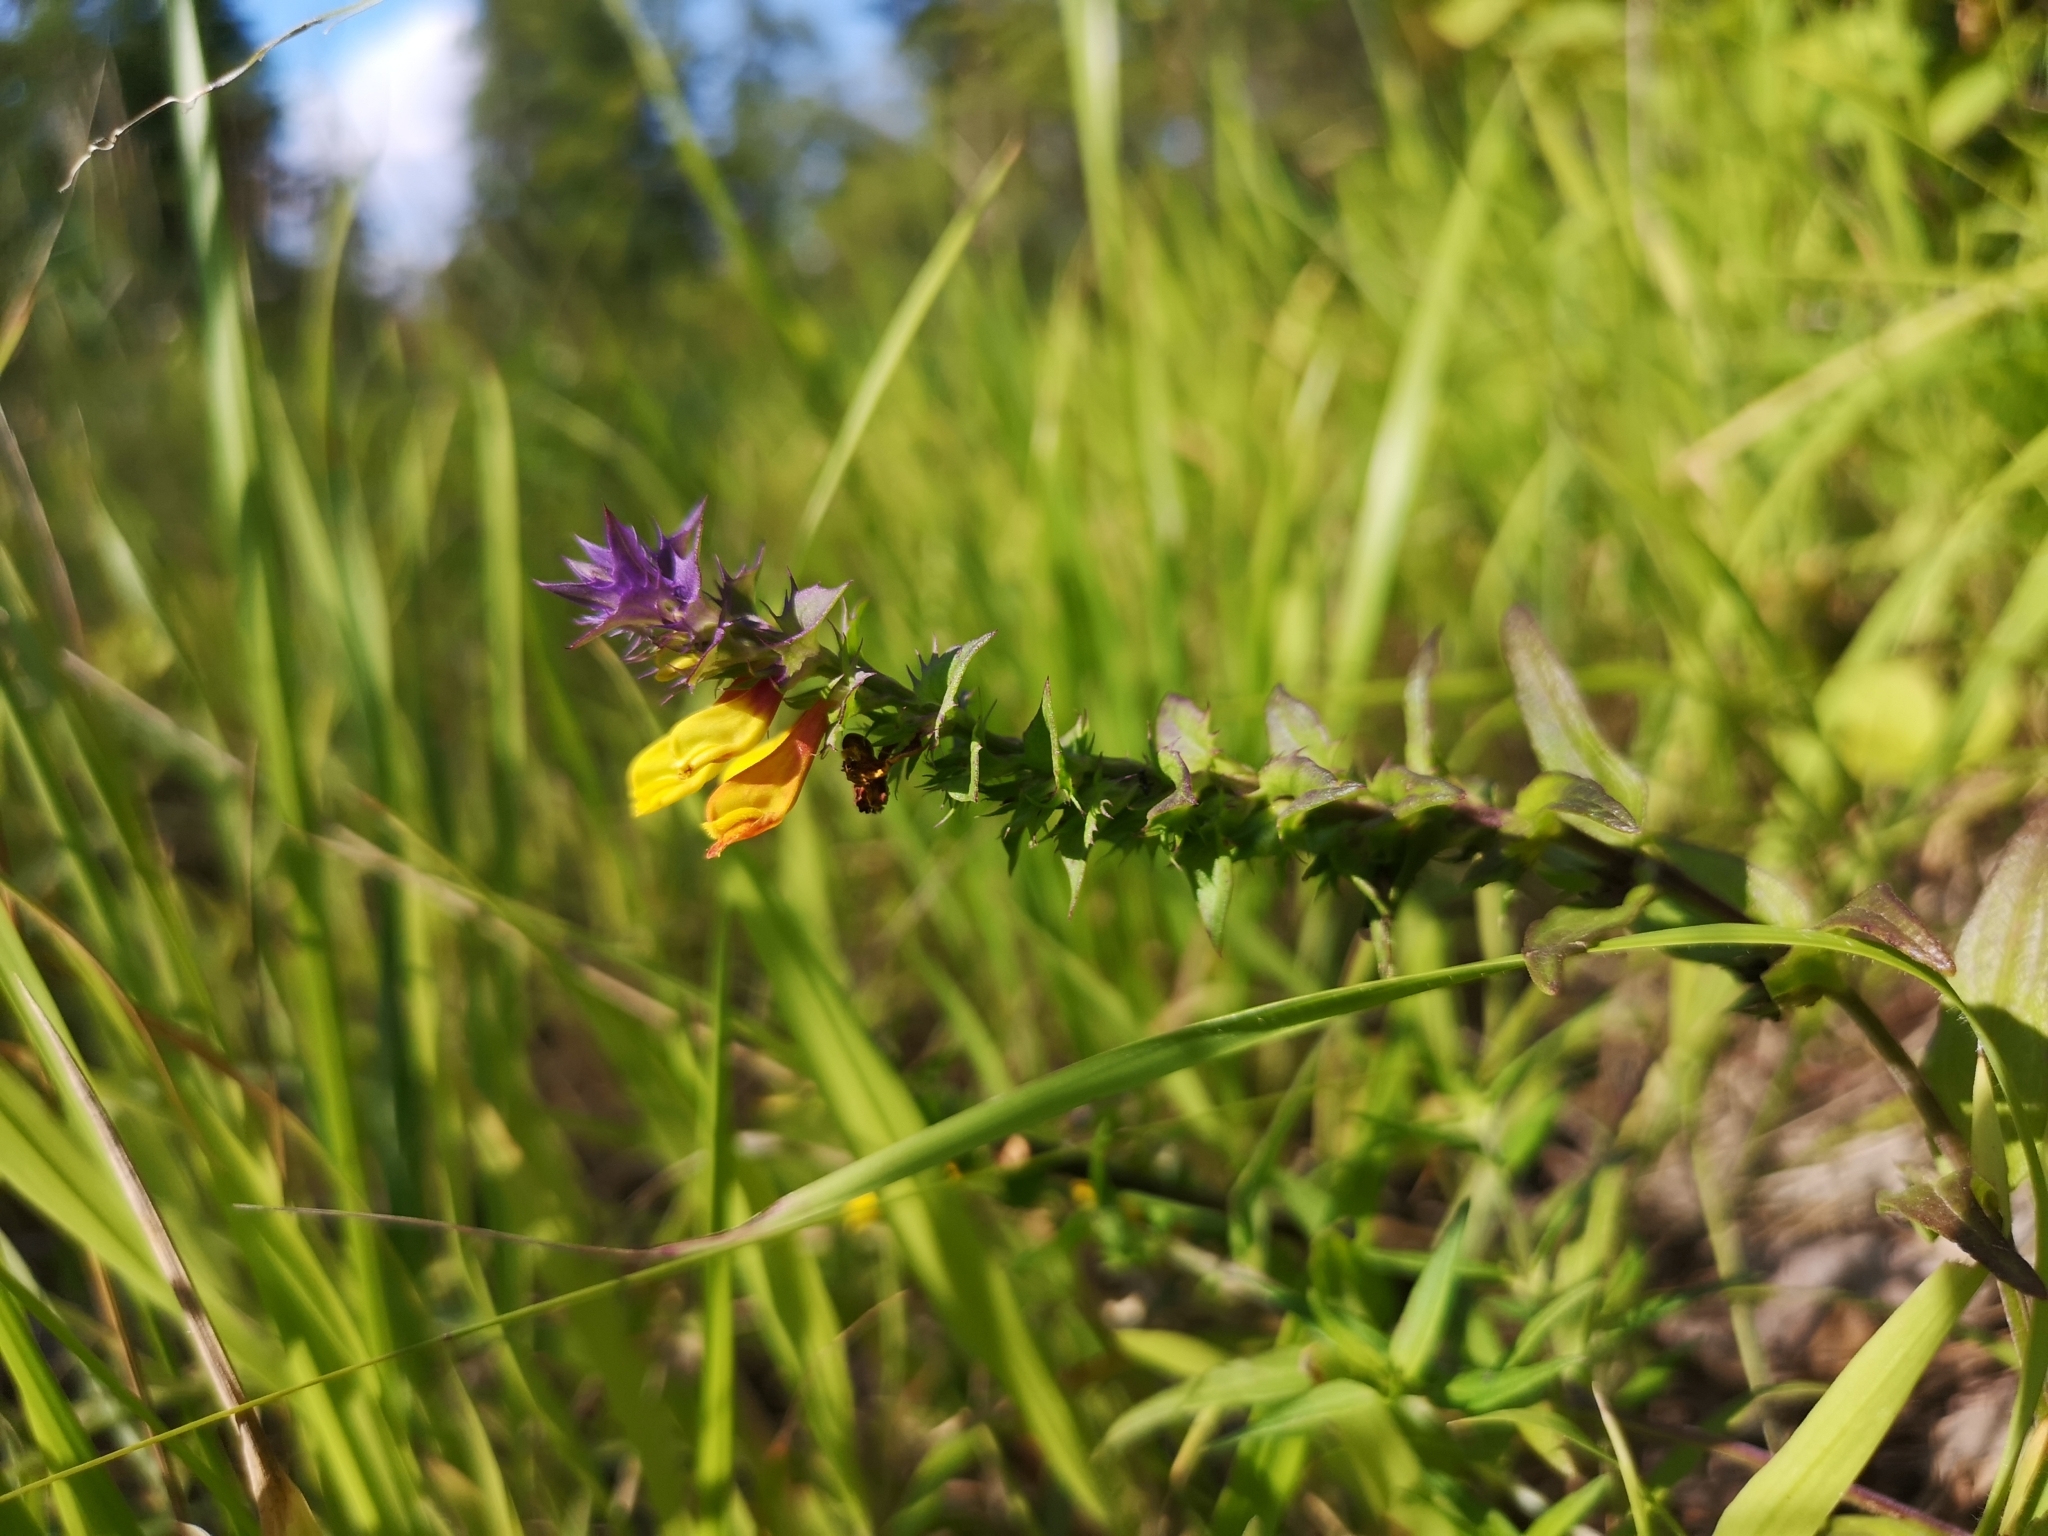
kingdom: Plantae
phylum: Tracheophyta
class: Magnoliopsida
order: Lamiales
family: Orobanchaceae
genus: Melampyrum
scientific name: Melampyrum nemorosum
